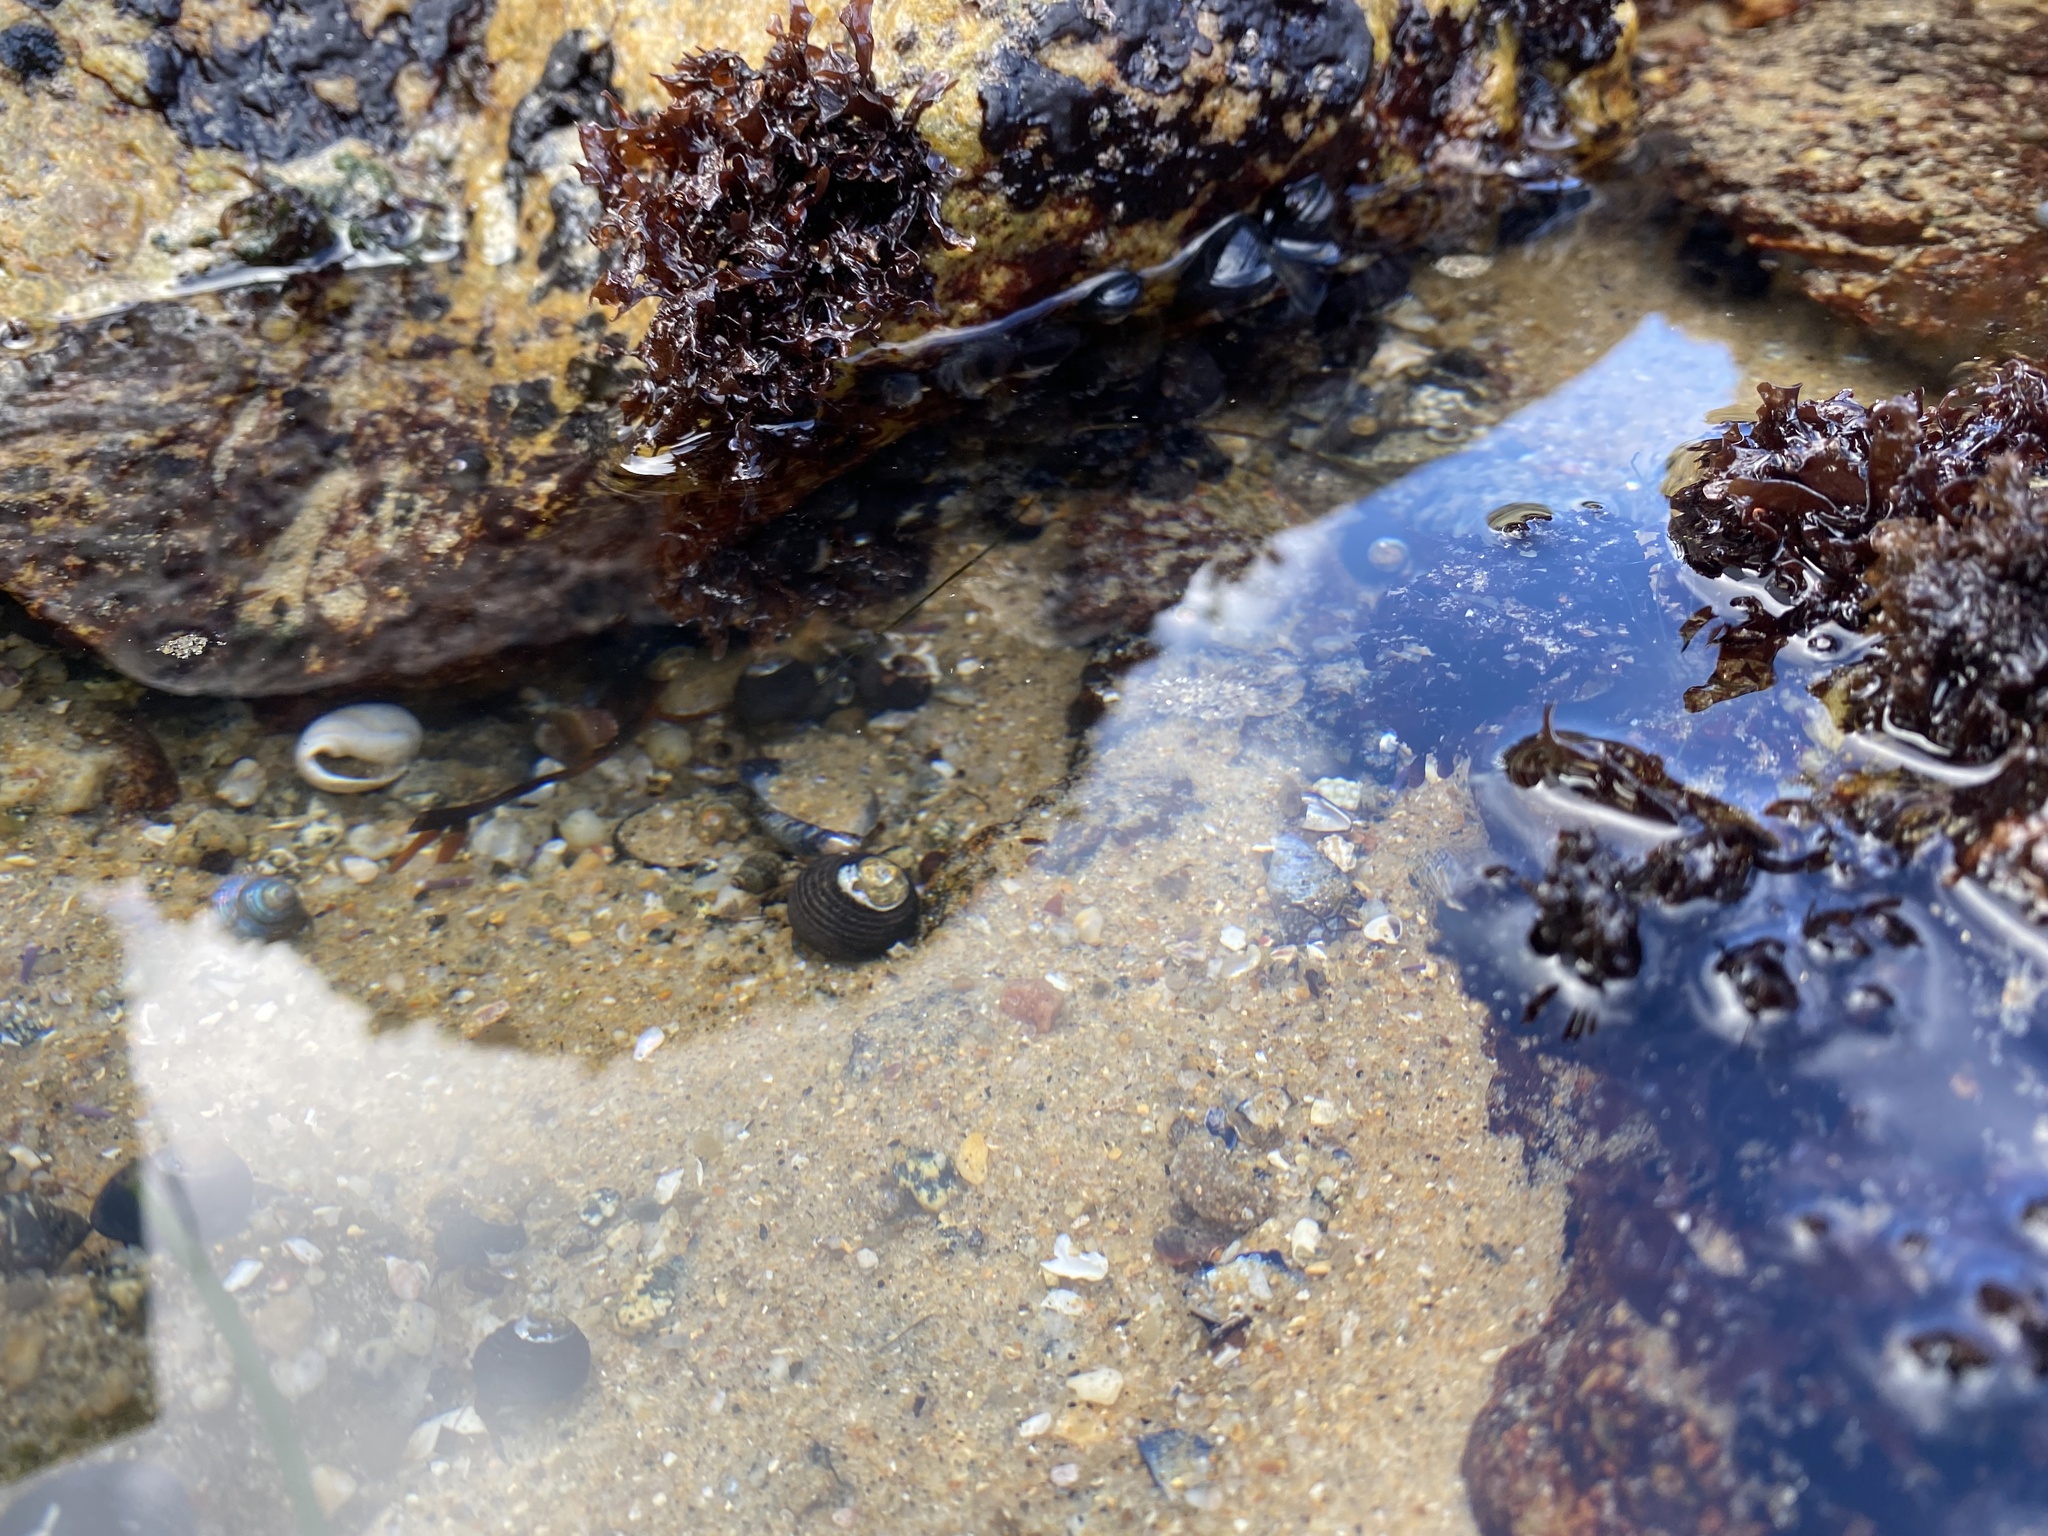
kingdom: Animalia
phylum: Mollusca
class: Gastropoda
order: Trochida
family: Tegulidae
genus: Tegula
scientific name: Tegula funebralis
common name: Black tegula
